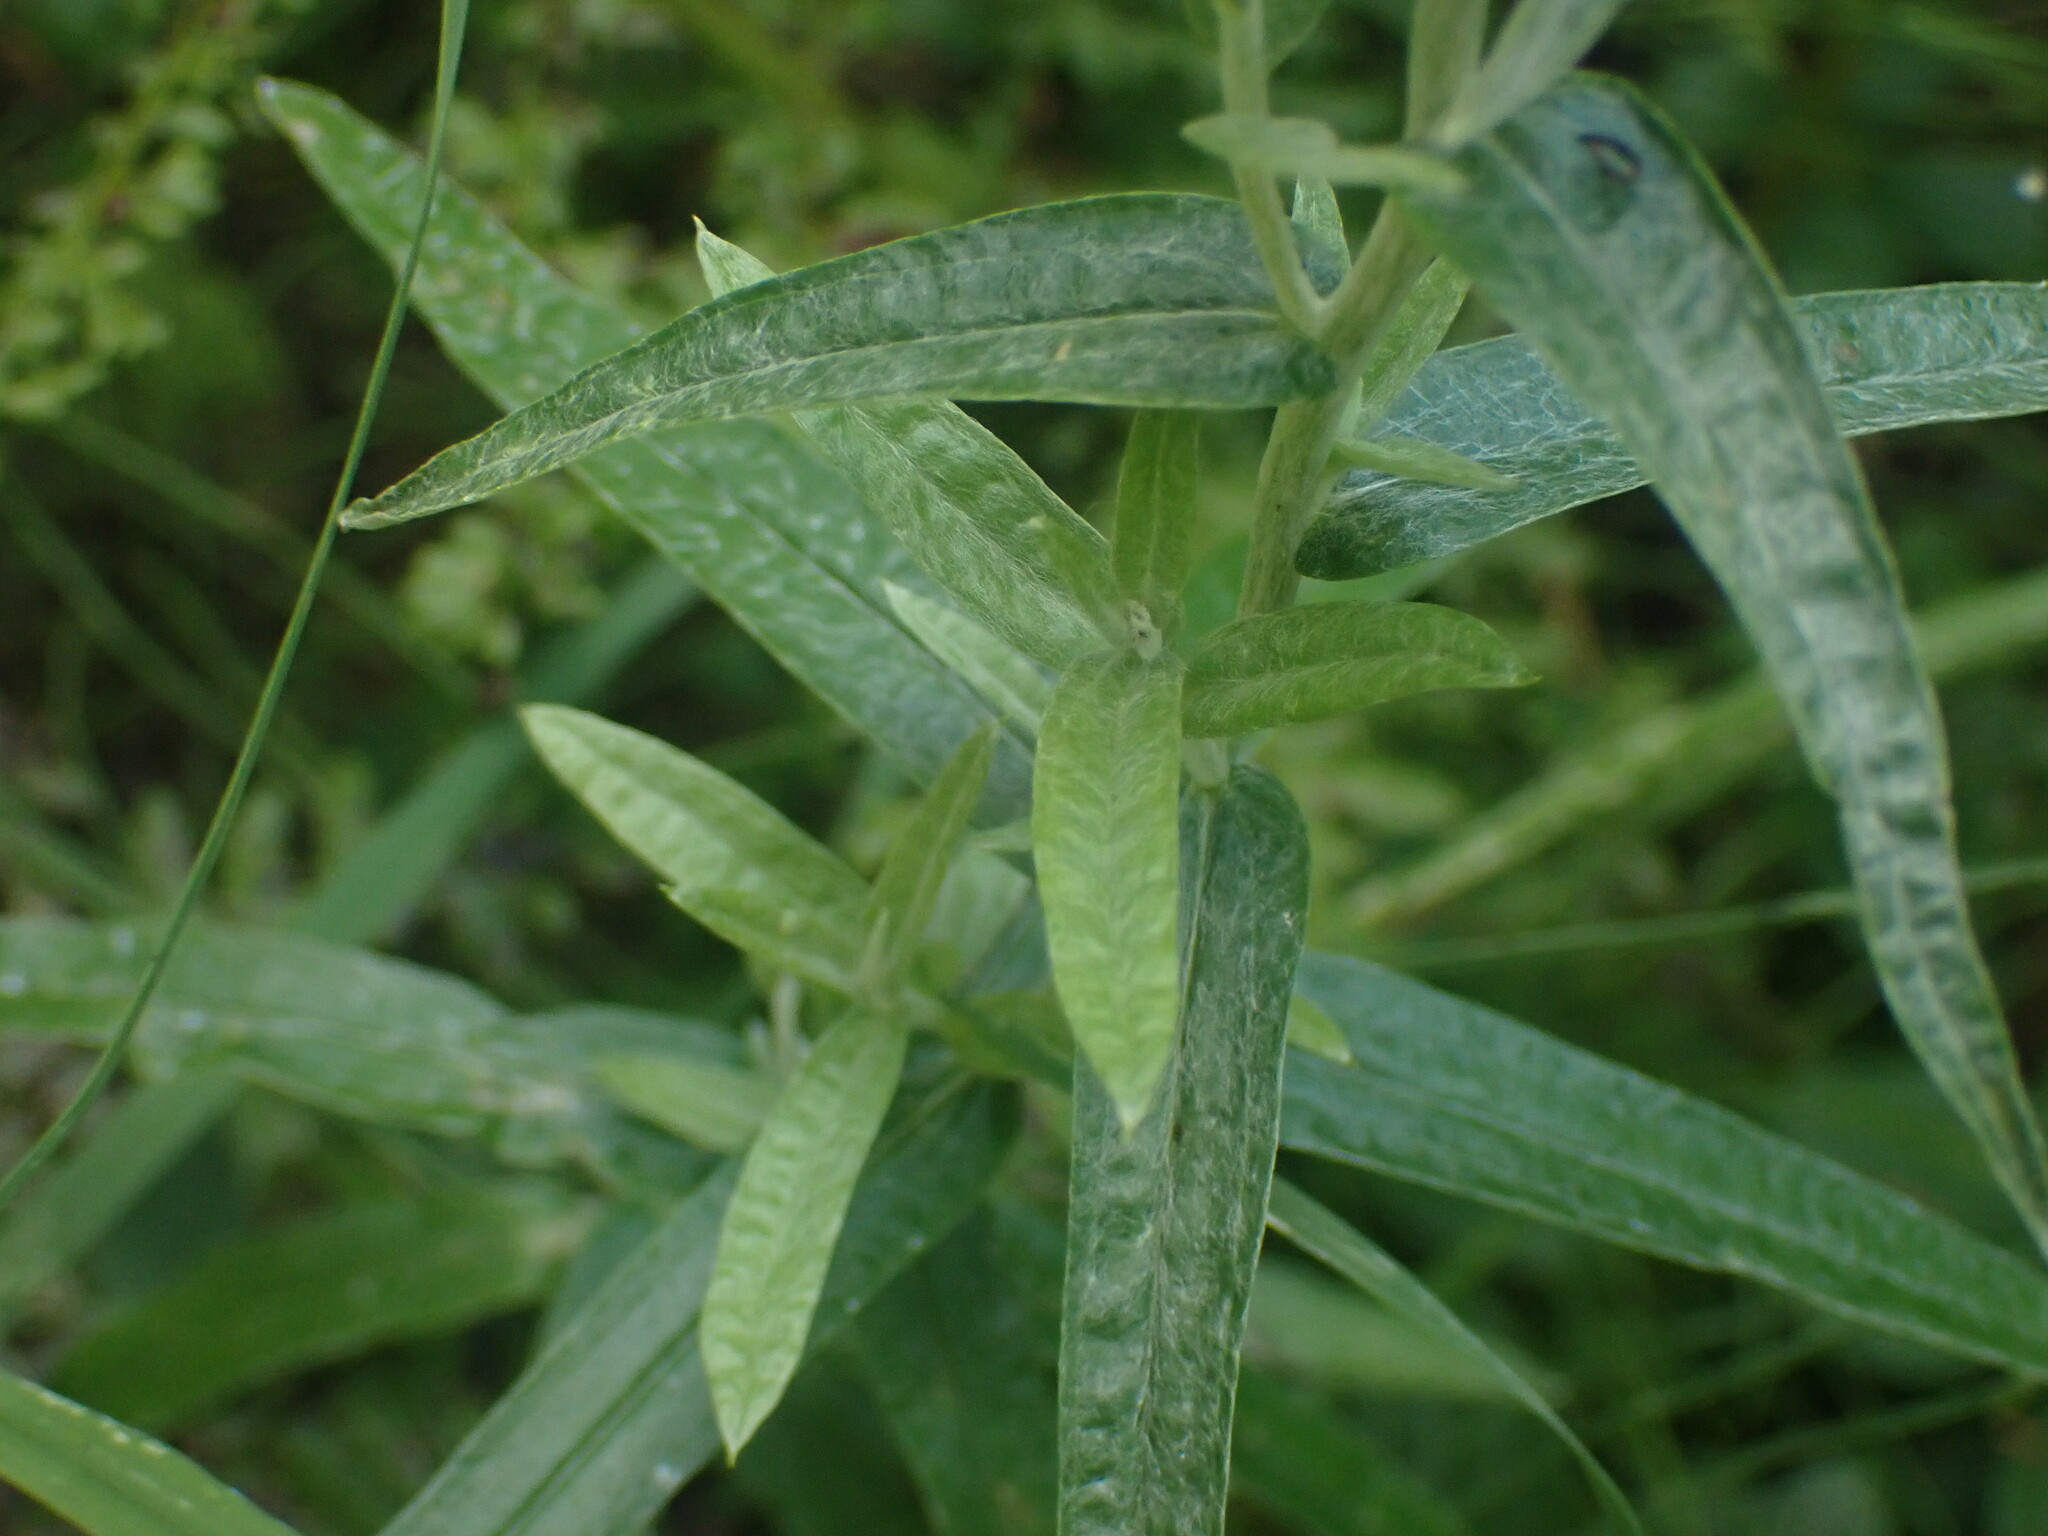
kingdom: Plantae
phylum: Tracheophyta
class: Magnoliopsida
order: Asterales
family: Asteraceae
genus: Anaphalis
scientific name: Anaphalis margaritacea
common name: Pearly everlasting
